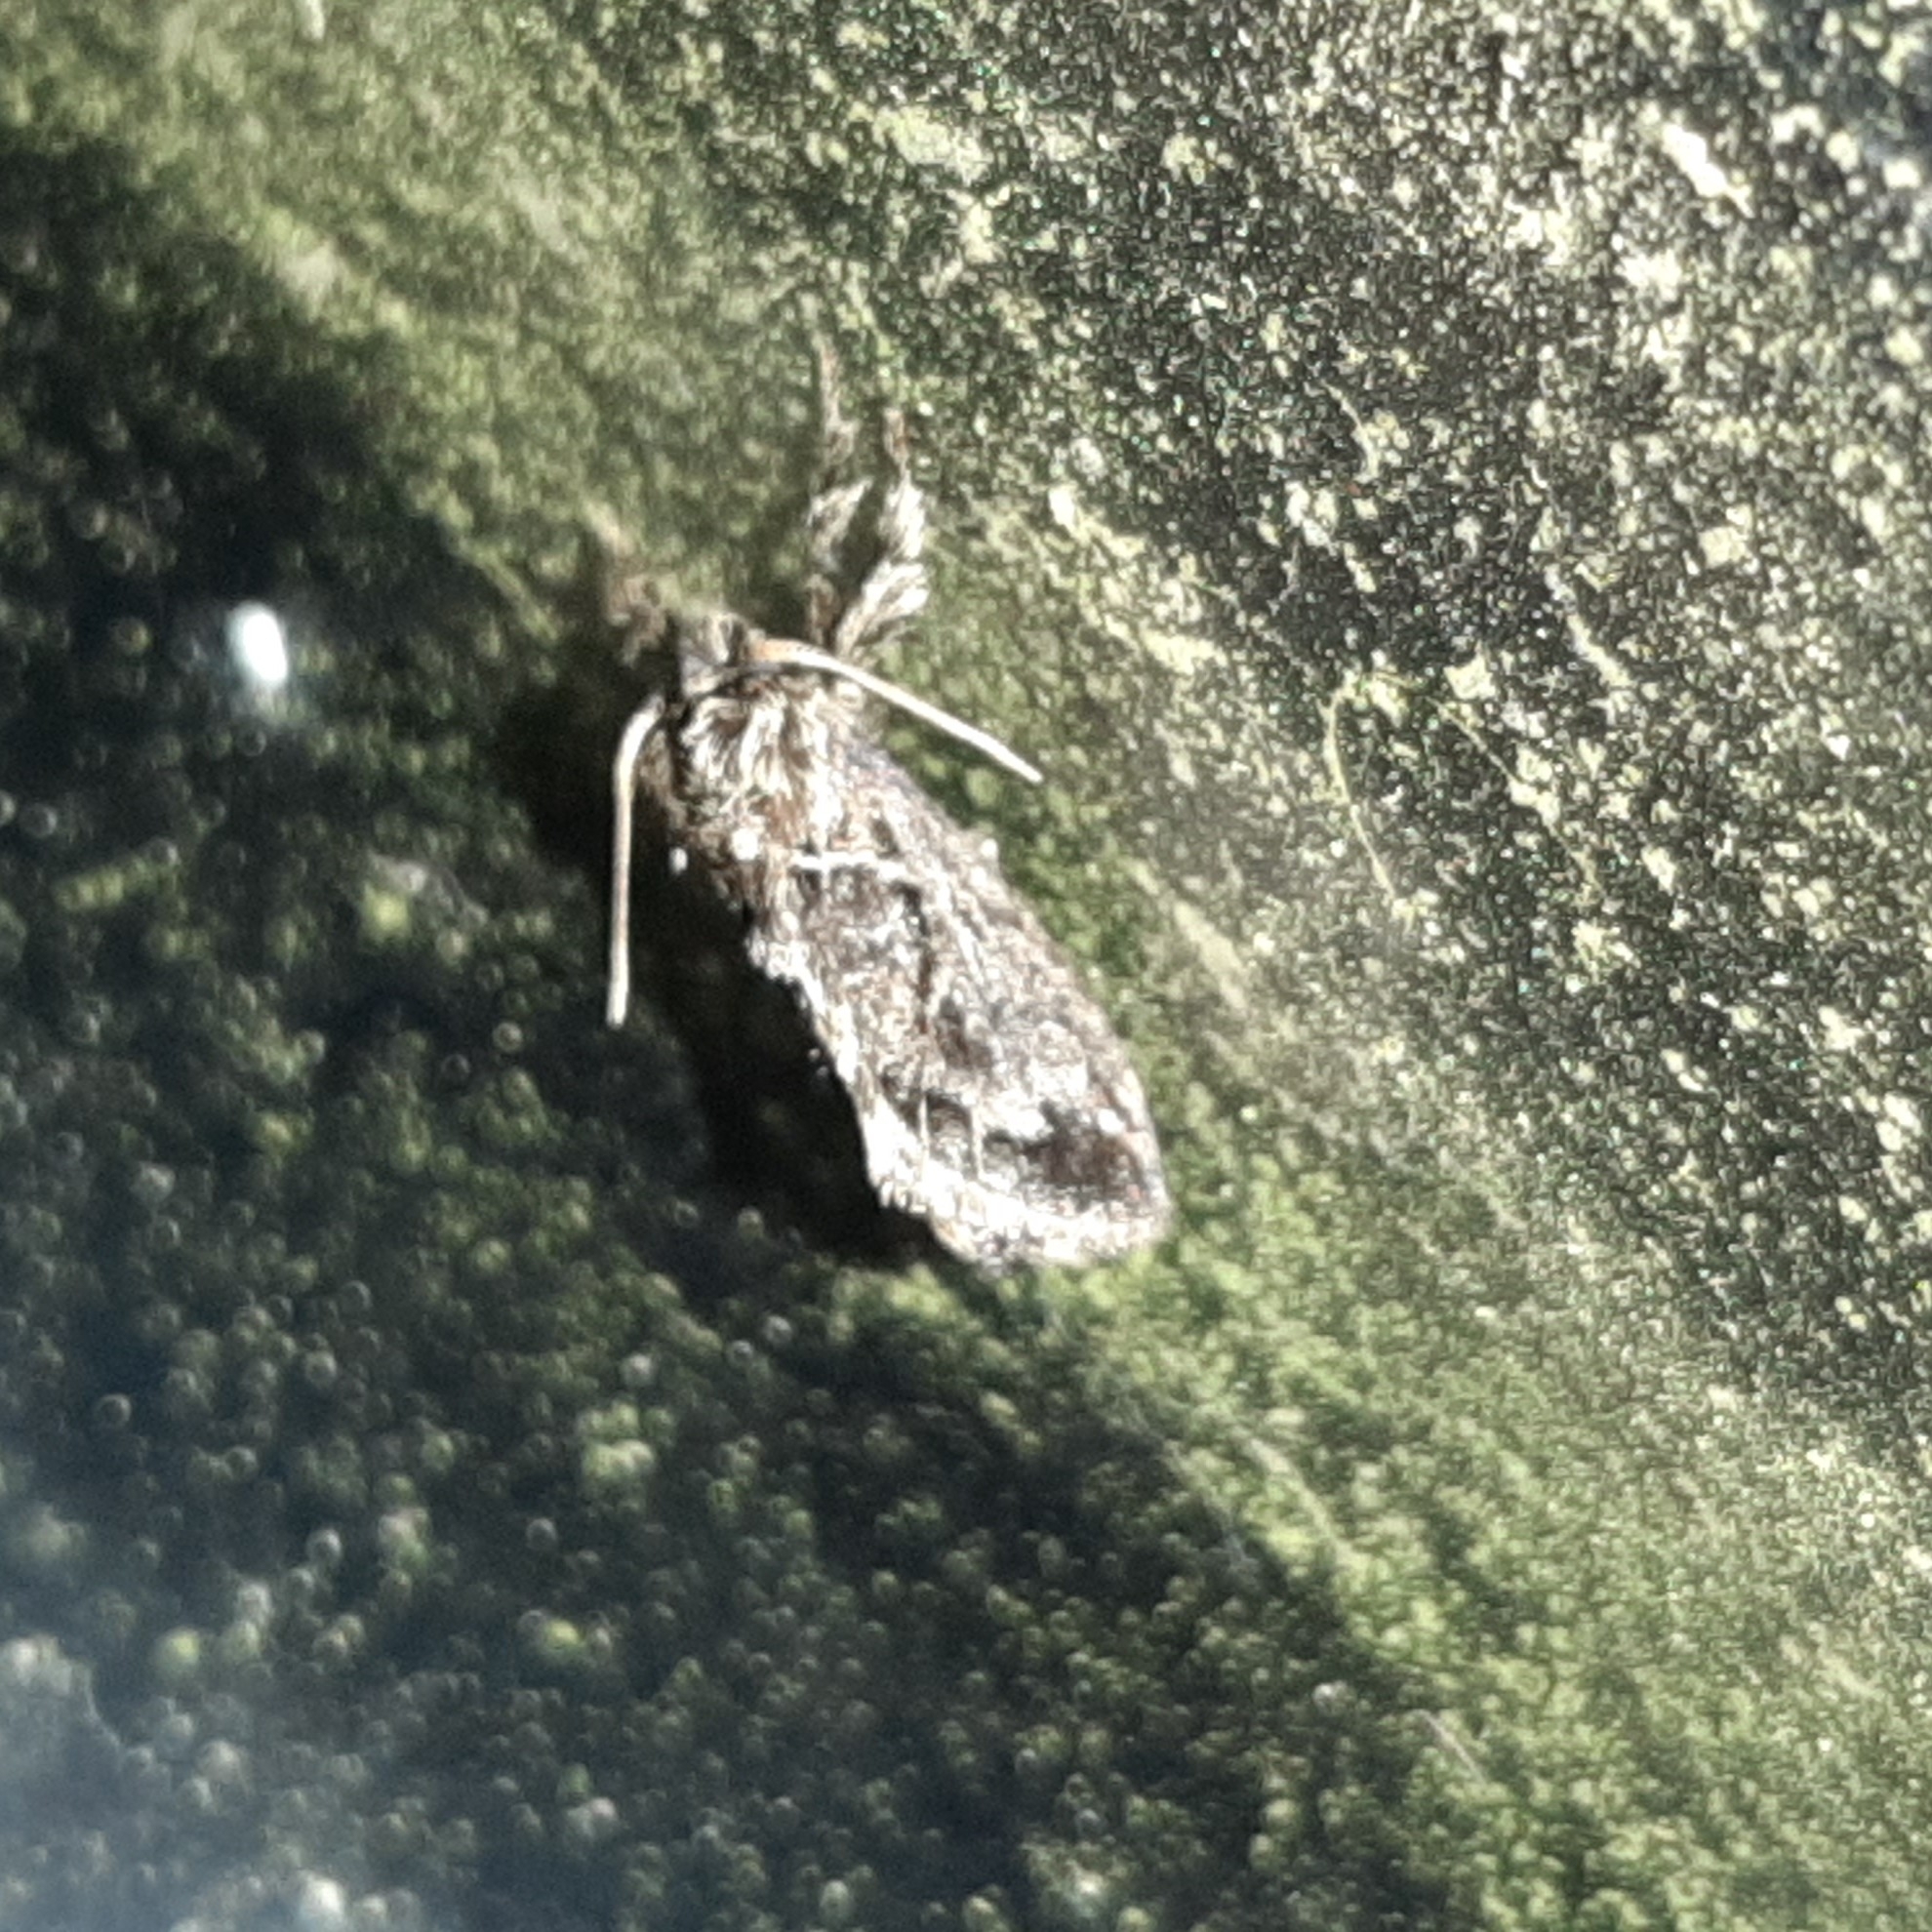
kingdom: Animalia
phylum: Arthropoda
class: Insecta
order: Lepidoptera
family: Limacodidae
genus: Euclea
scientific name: Euclea plugma
